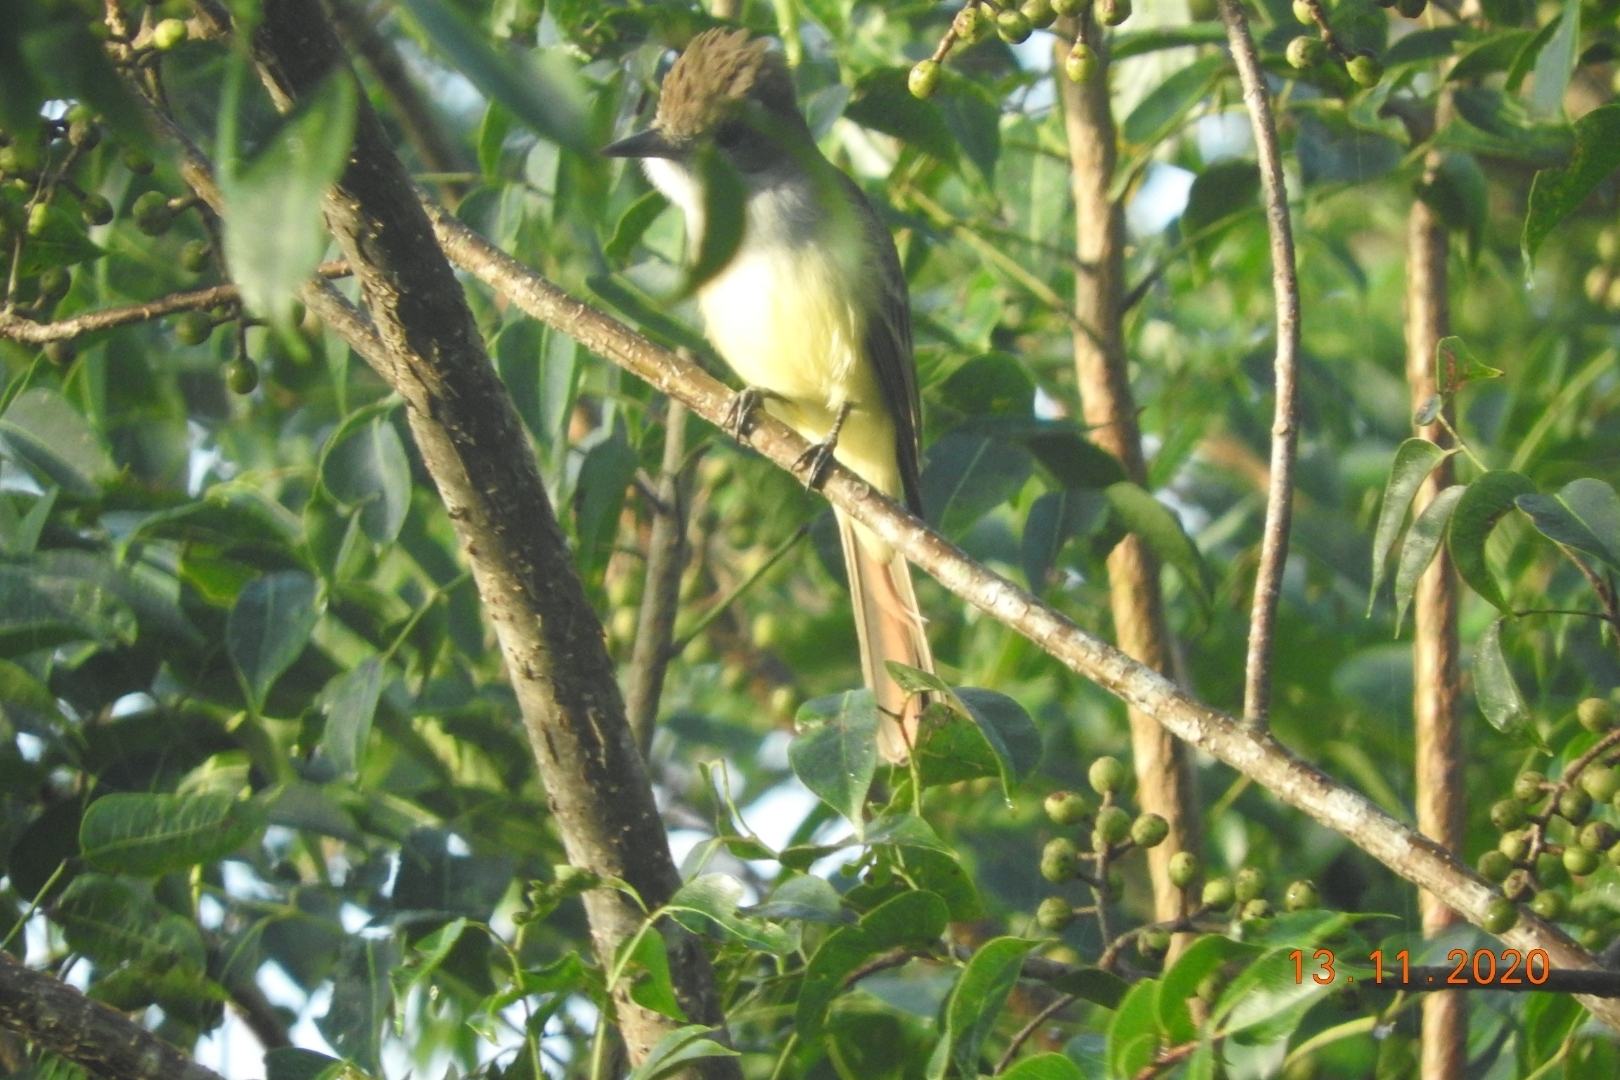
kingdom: Animalia
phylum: Chordata
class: Aves
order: Passeriformes
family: Tyrannidae
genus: Myiarchus
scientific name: Myiarchus tyrannulus
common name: Brown-crested flycatcher
